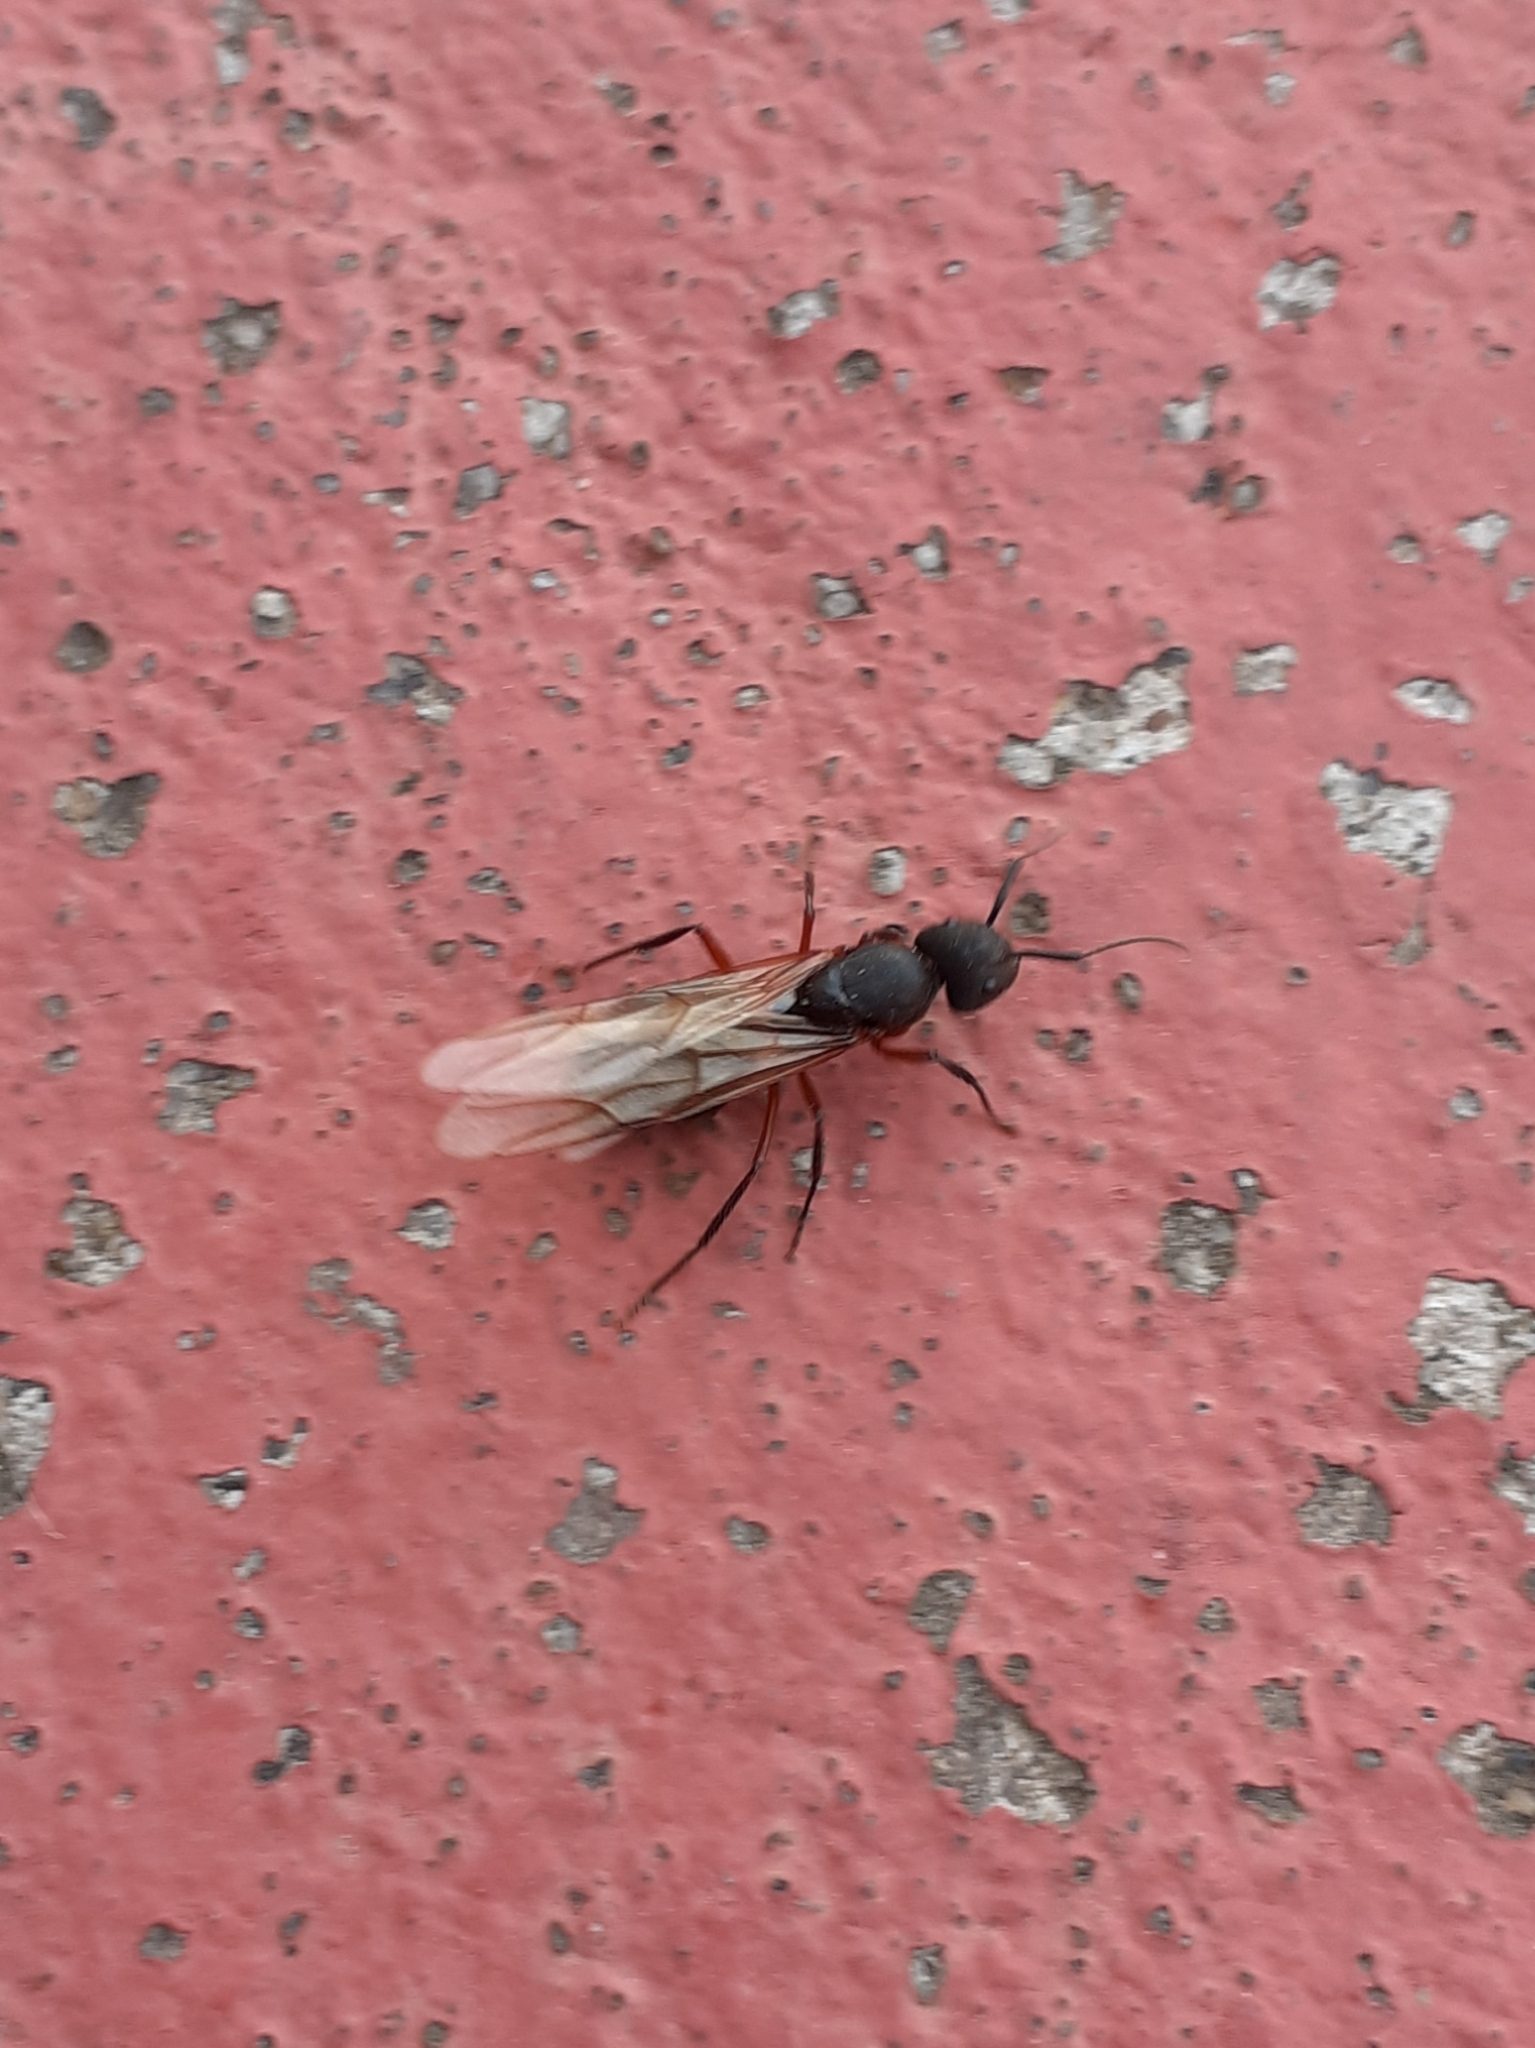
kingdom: Animalia
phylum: Arthropoda
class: Insecta
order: Hymenoptera
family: Formicidae
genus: Camponotus
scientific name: Camponotus rufipes
